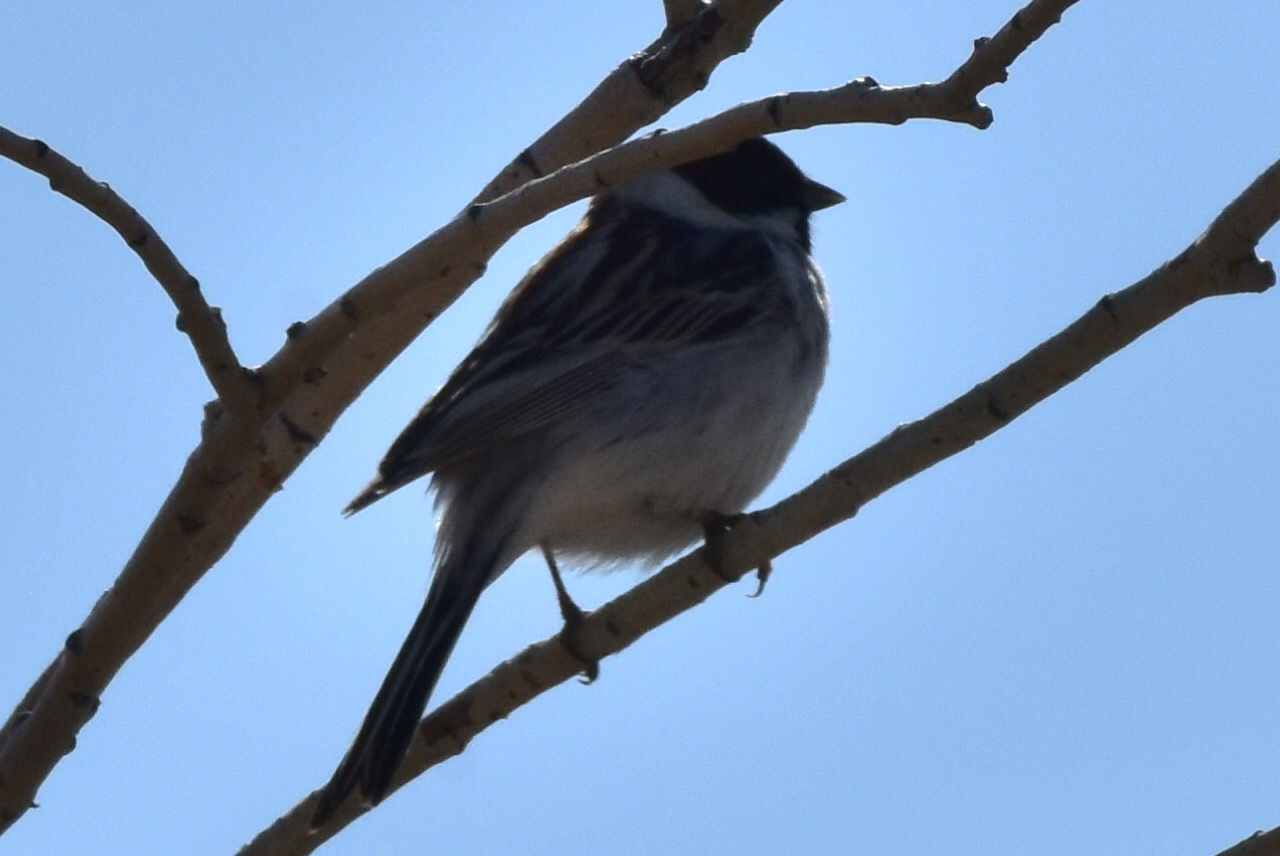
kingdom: Animalia
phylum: Chordata
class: Aves
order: Passeriformes
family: Emberizidae
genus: Emberiza
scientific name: Emberiza schoeniclus
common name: Reed bunting
